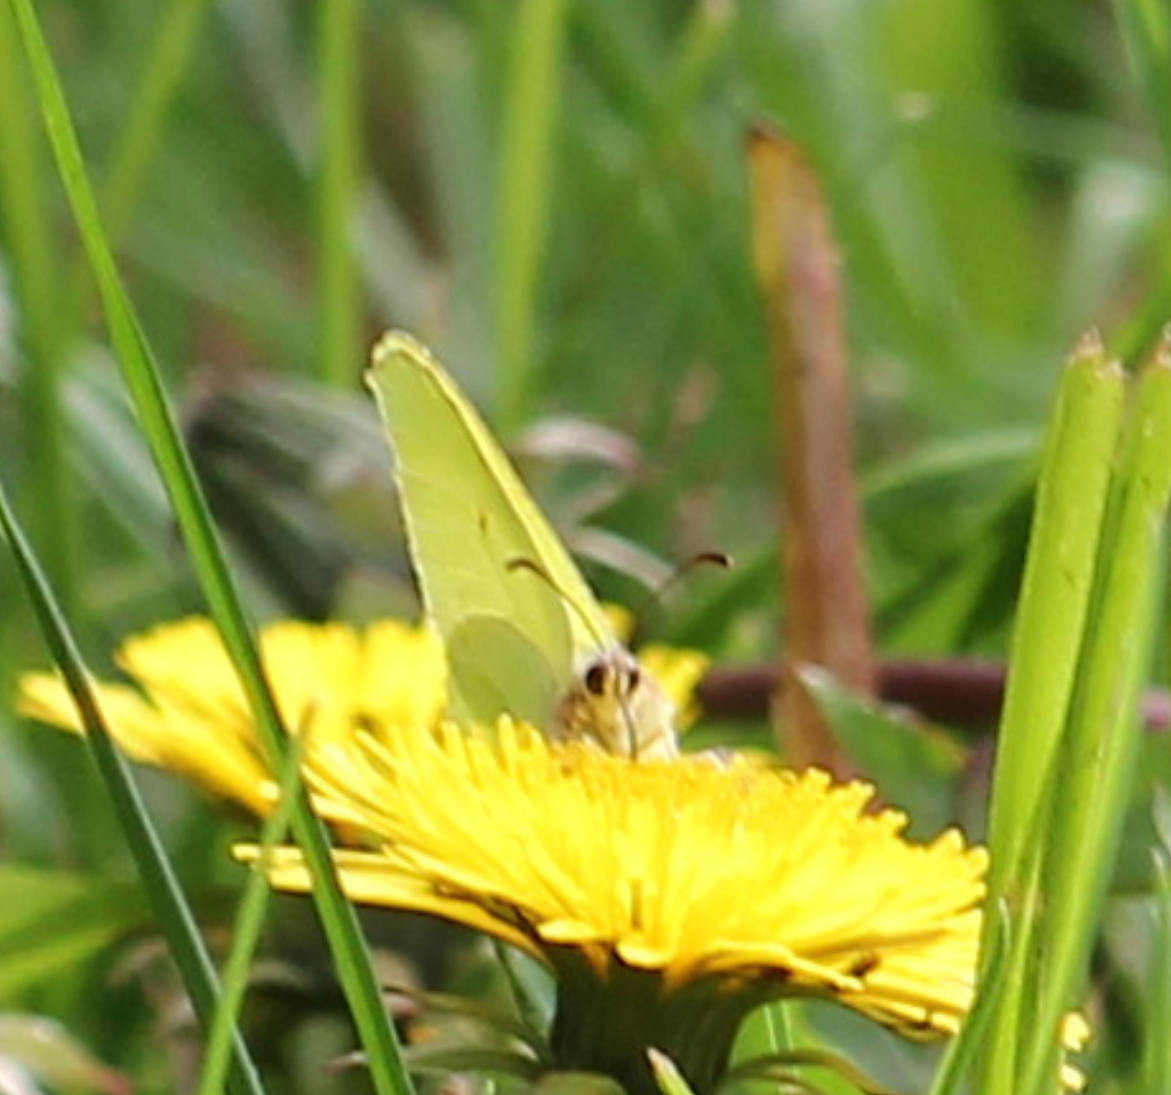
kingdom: Animalia
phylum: Arthropoda
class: Insecta
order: Lepidoptera
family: Pieridae
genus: Gonepteryx
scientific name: Gonepteryx rhamni
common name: Brimstone
